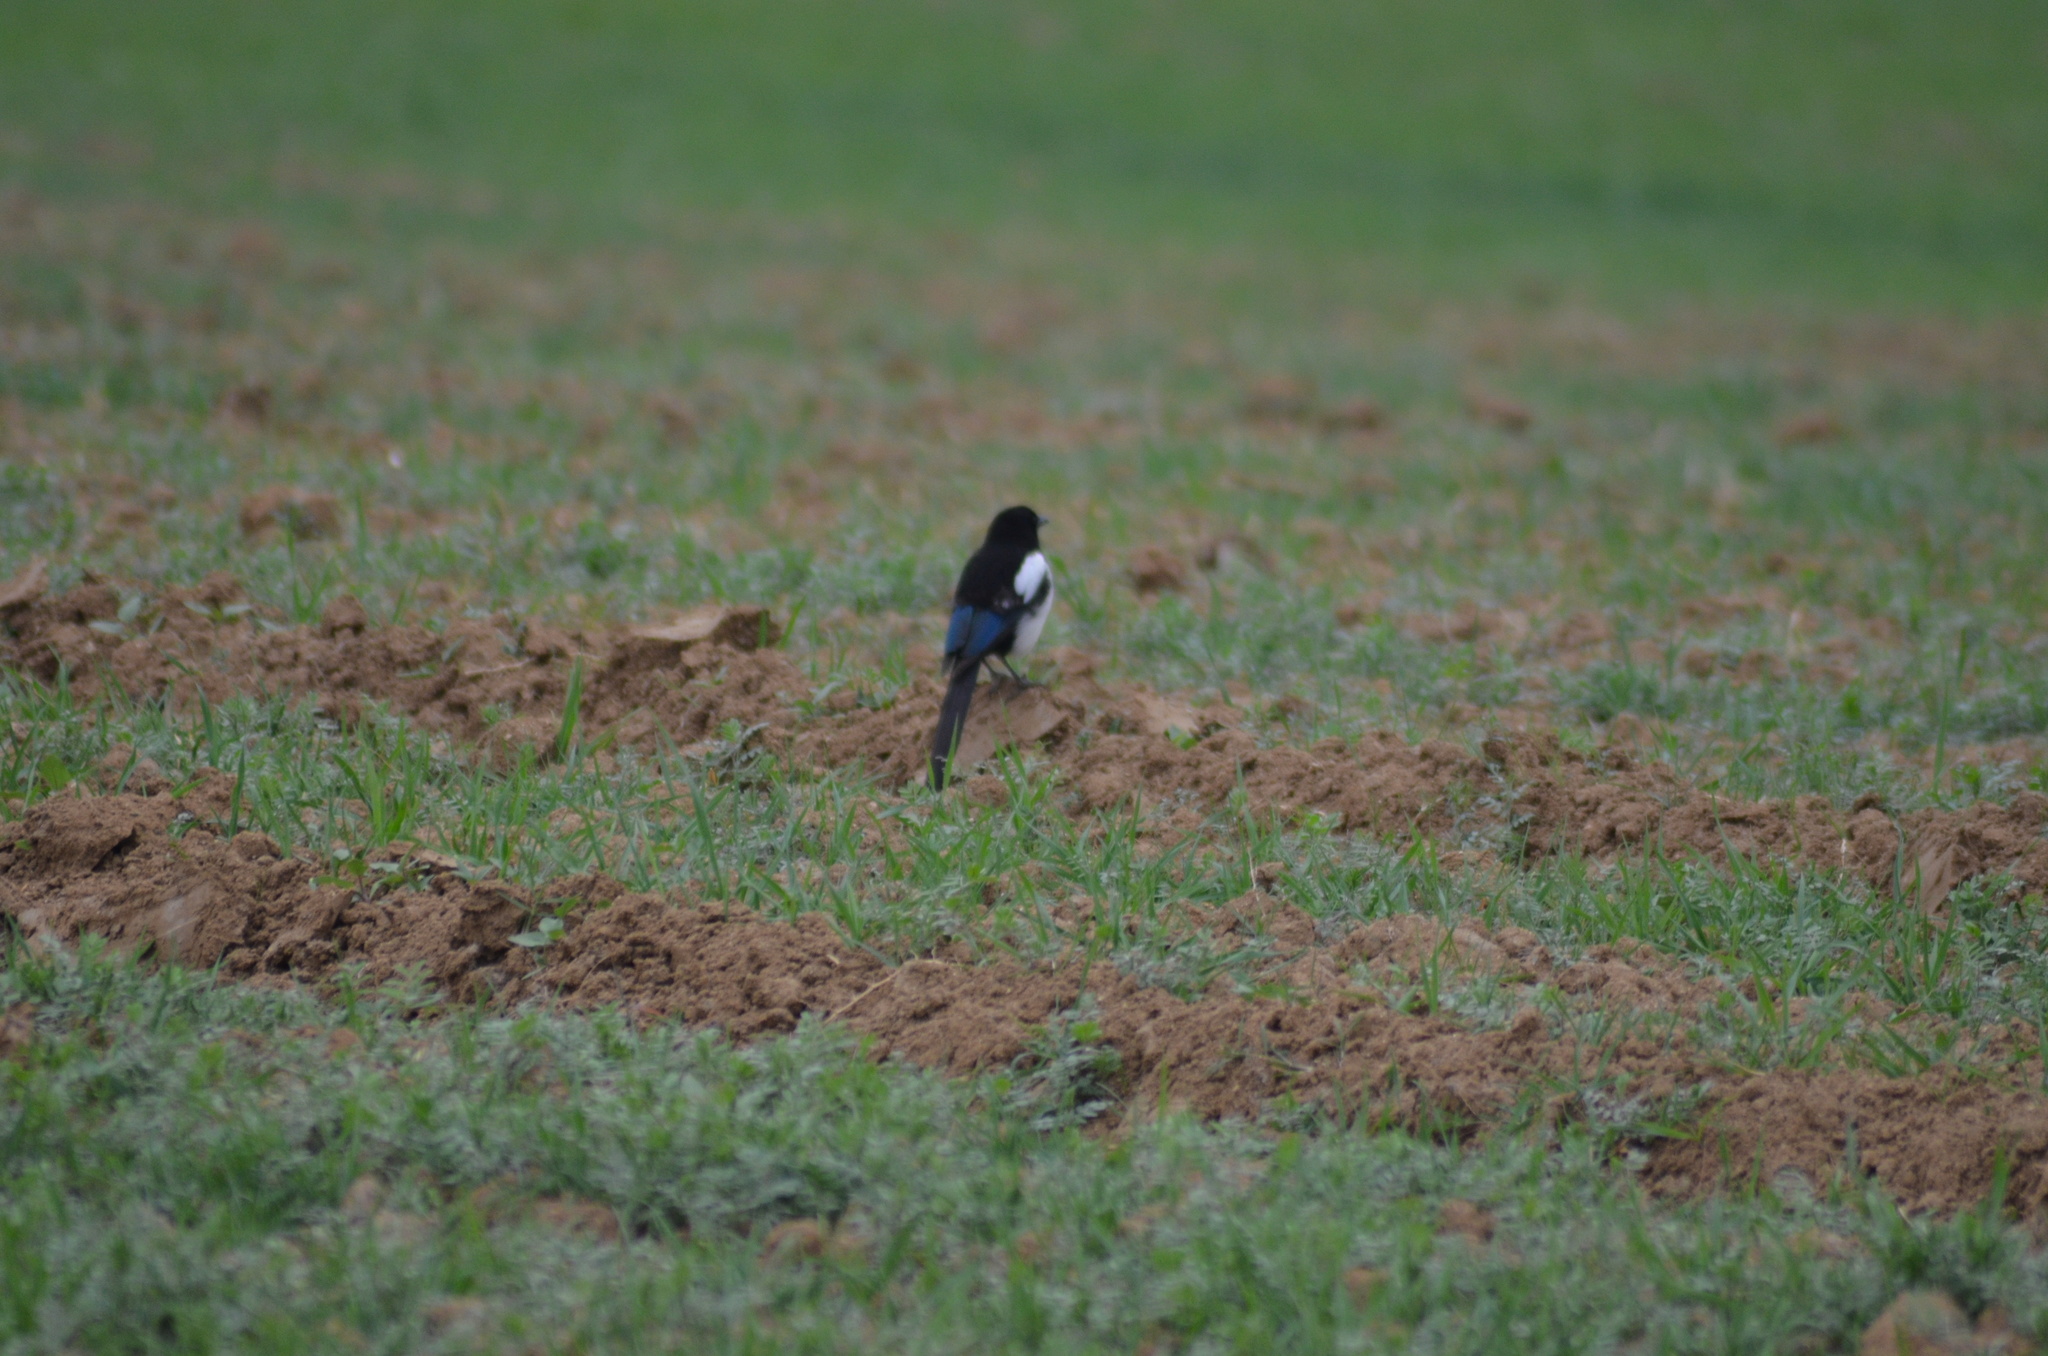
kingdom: Animalia
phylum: Chordata
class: Aves
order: Passeriformes
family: Corvidae
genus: Pica
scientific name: Pica pica
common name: Eurasian magpie
